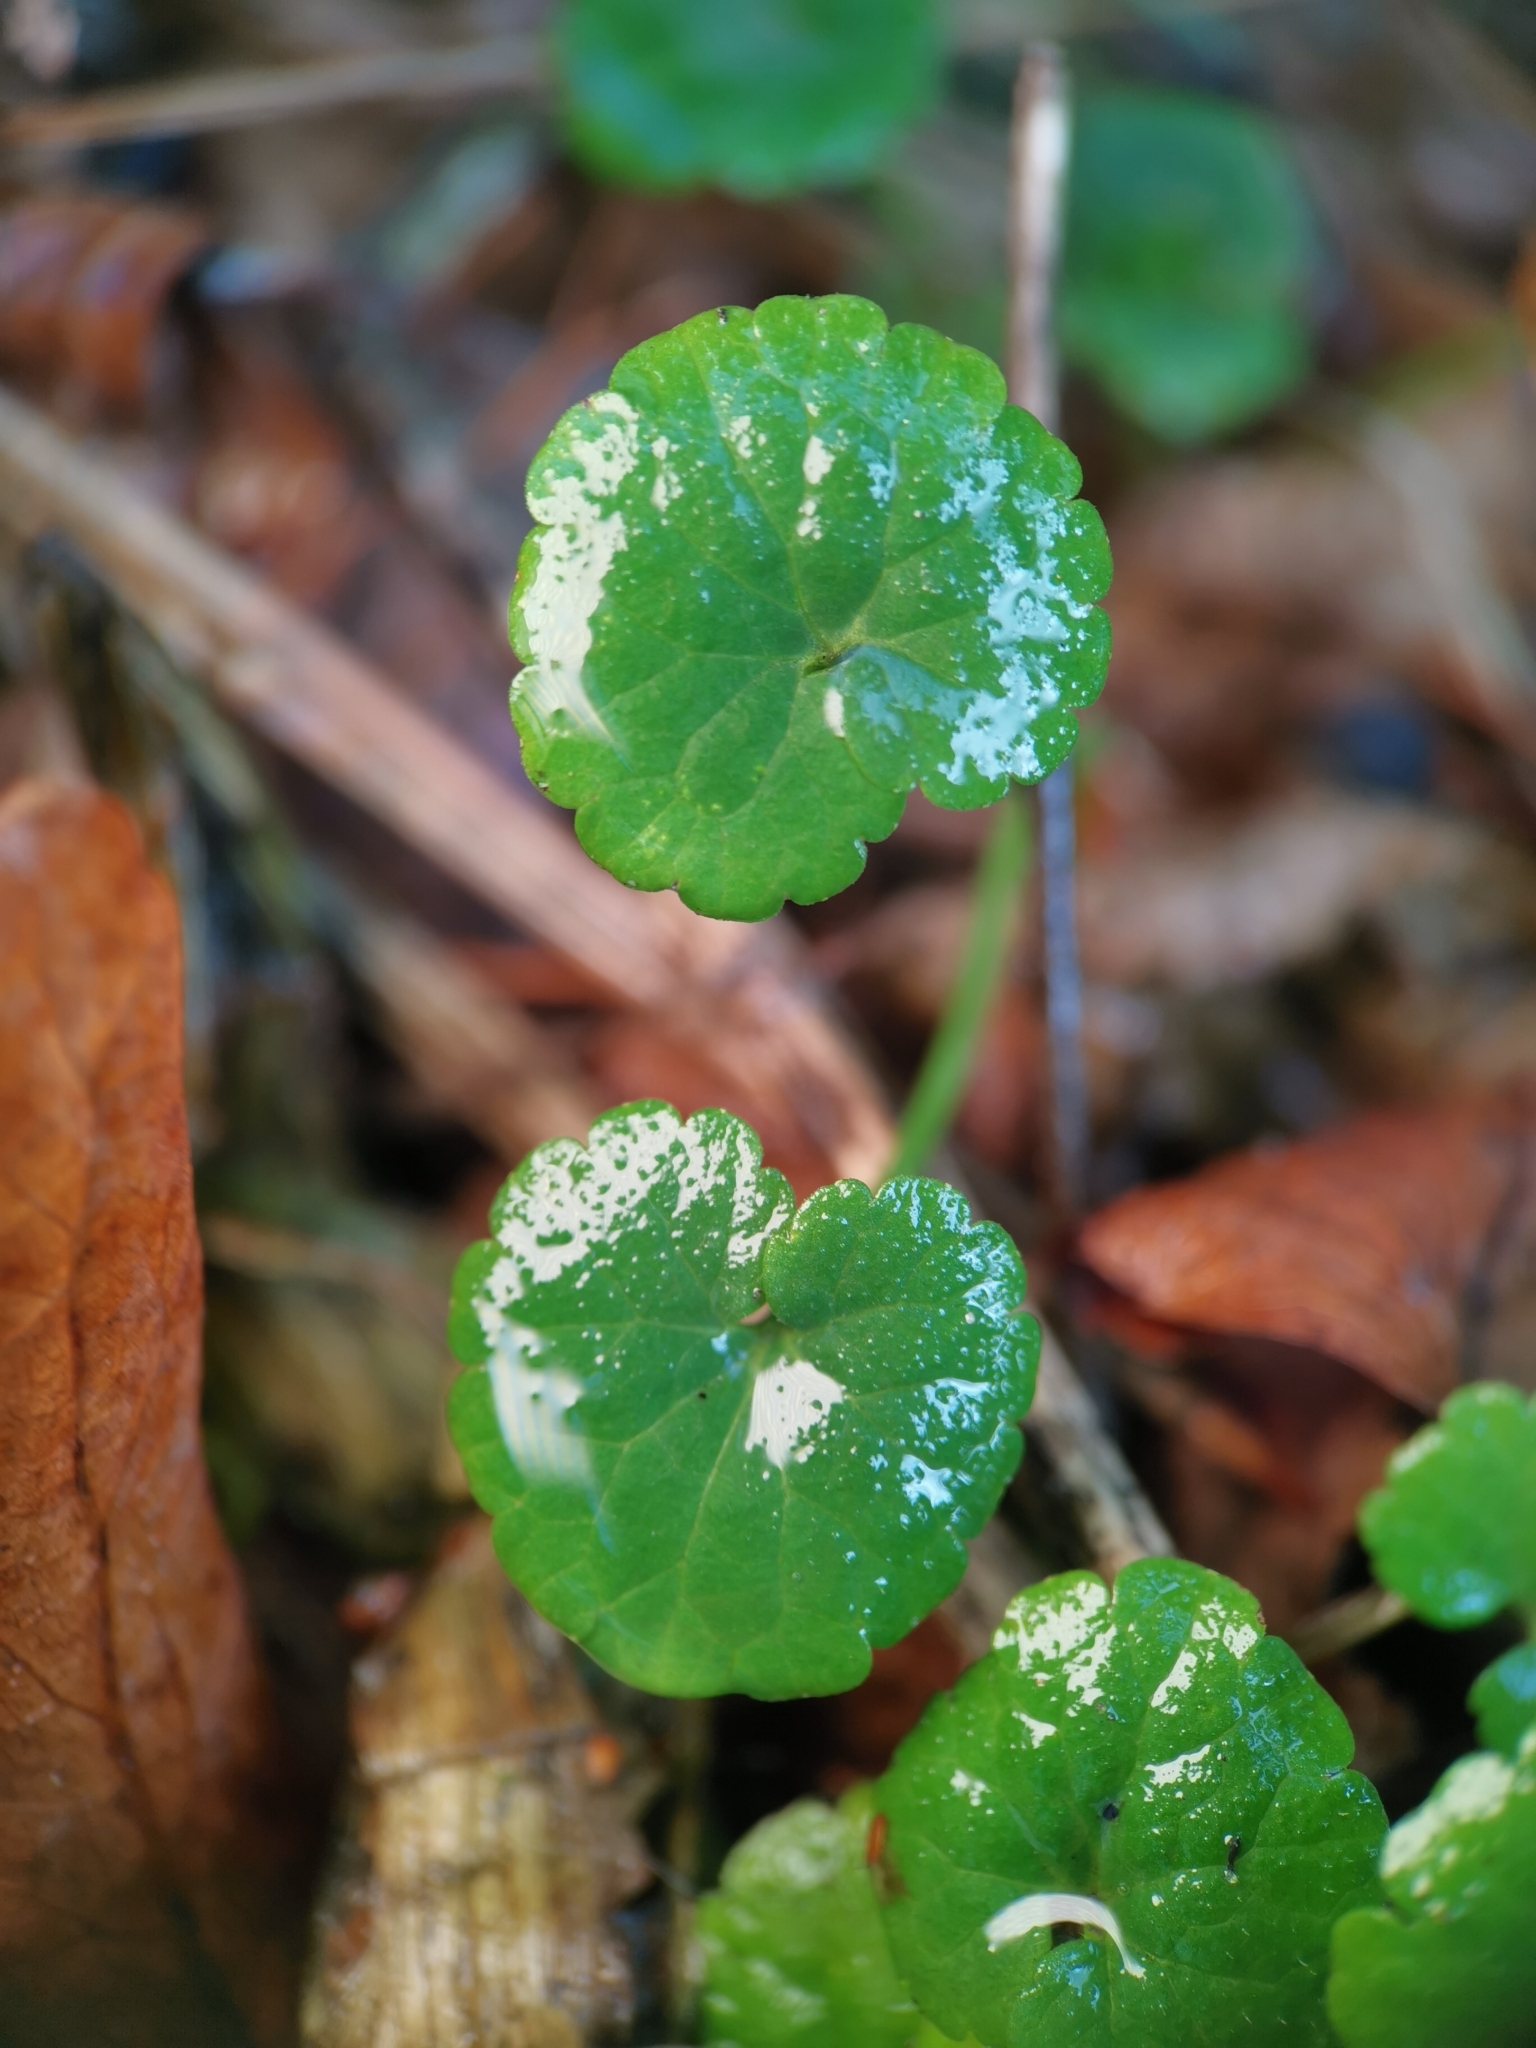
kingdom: Plantae
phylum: Tracheophyta
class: Magnoliopsida
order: Lamiales
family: Lamiaceae
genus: Glechoma
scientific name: Glechoma hederacea
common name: Ground ivy
